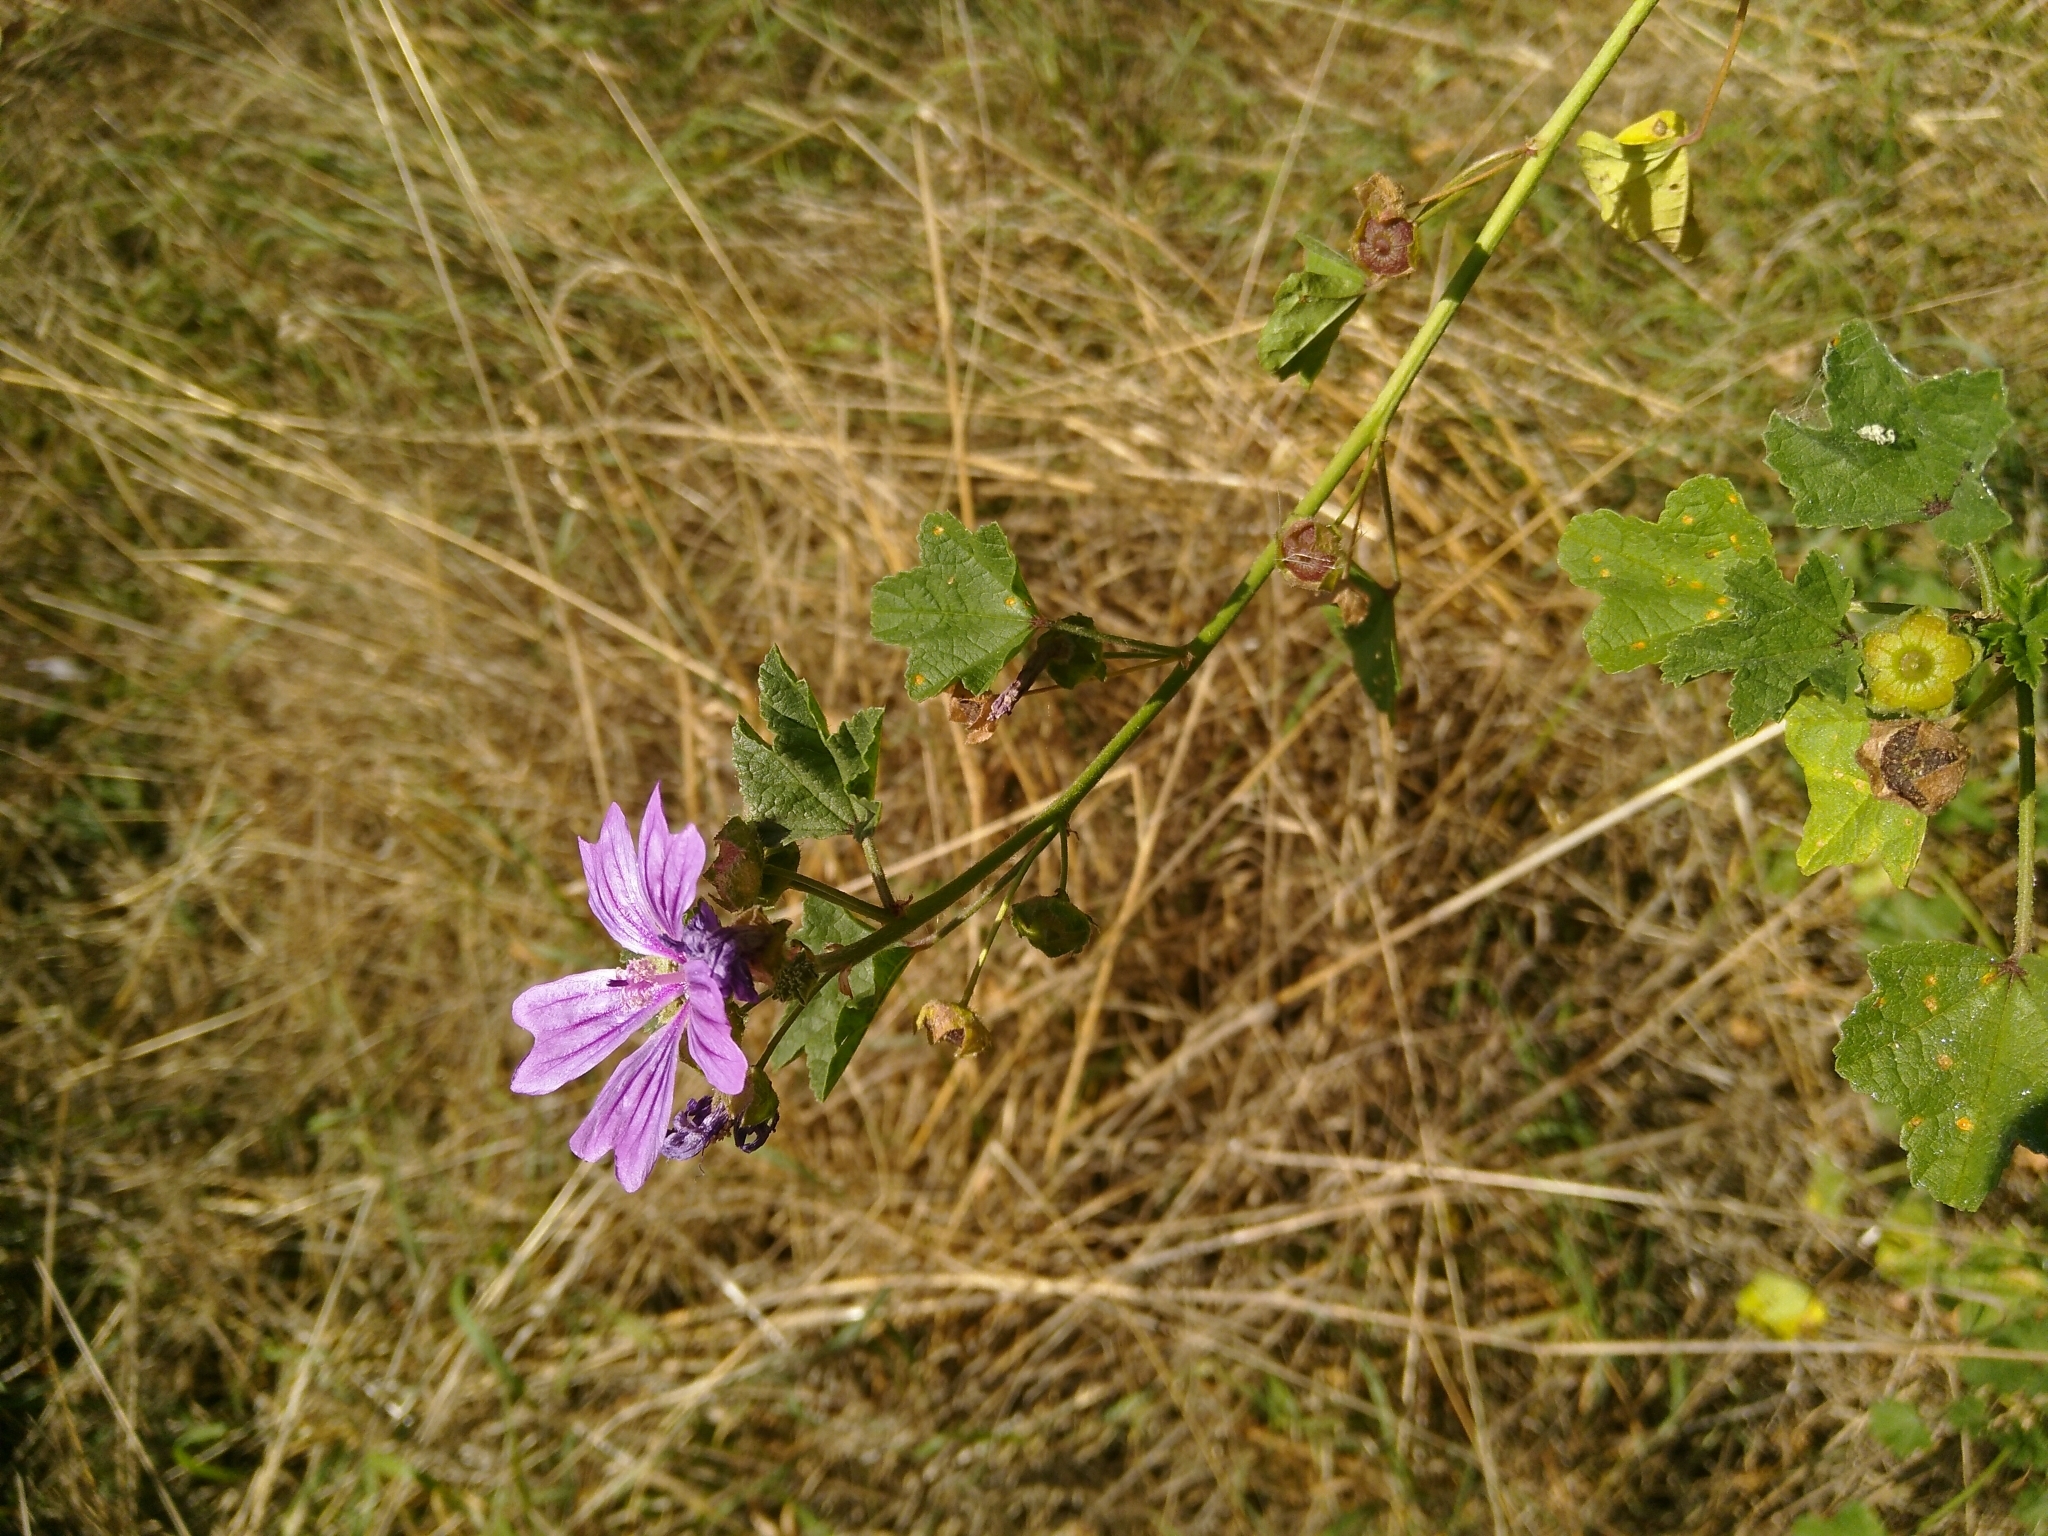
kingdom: Plantae
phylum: Tracheophyta
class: Magnoliopsida
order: Malvales
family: Malvaceae
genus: Malva
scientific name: Malva sylvestris
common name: Common mallow
